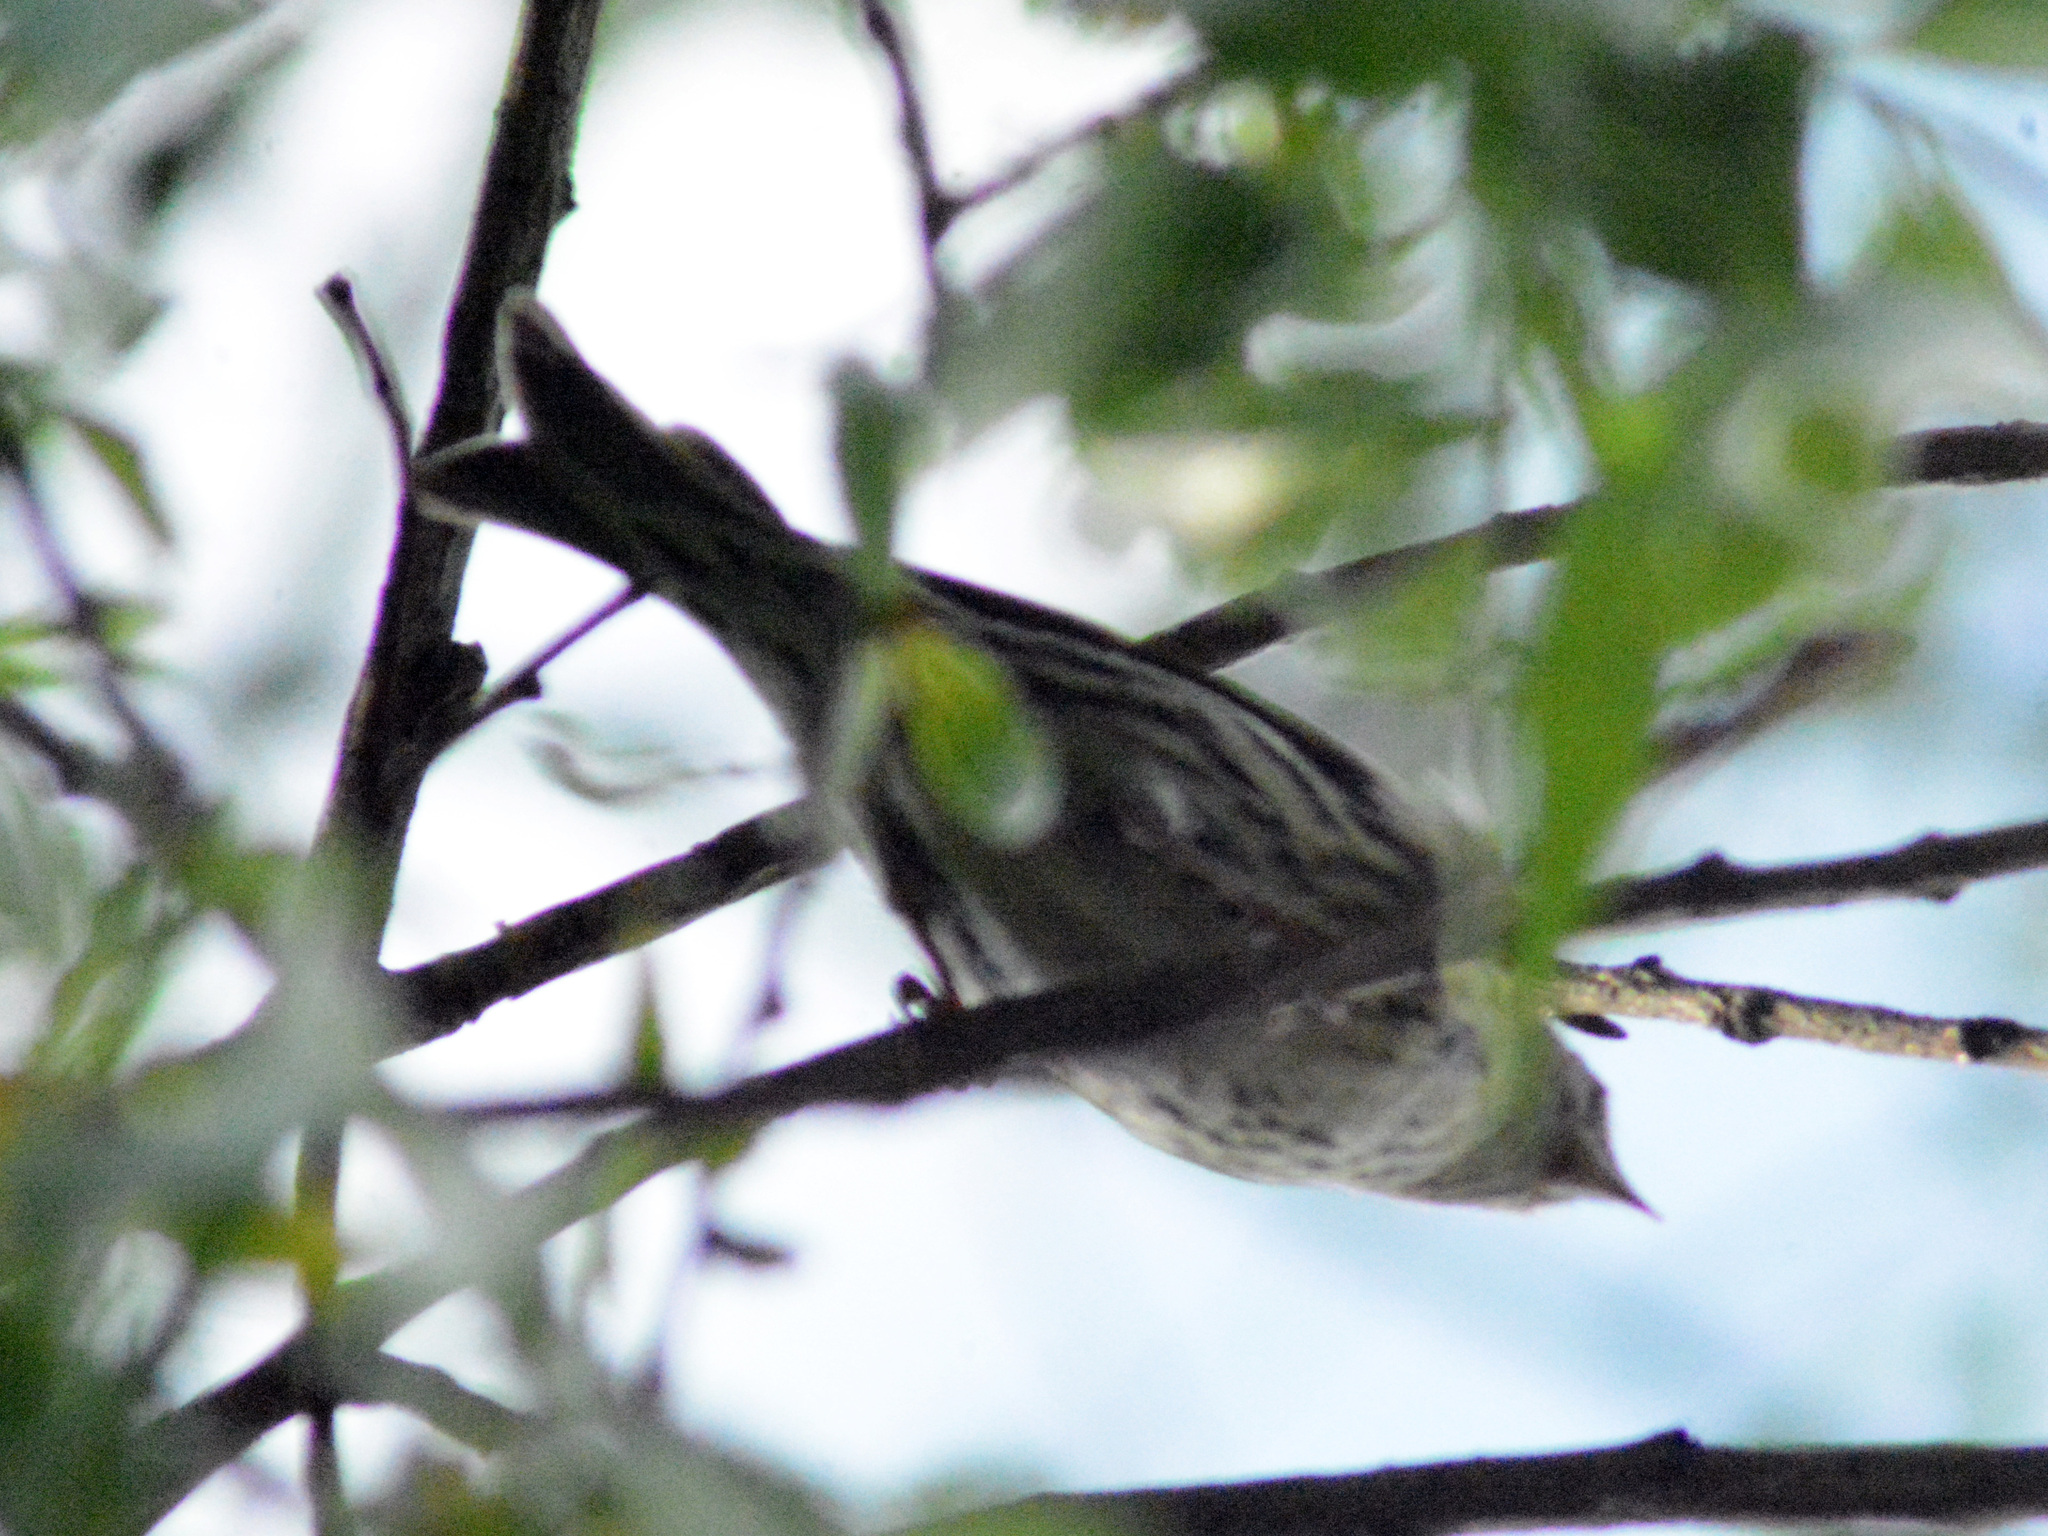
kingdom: Animalia
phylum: Chordata
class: Aves
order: Passeriformes
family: Fringillidae
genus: Spinus
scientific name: Spinus spinus
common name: Eurasian siskin
